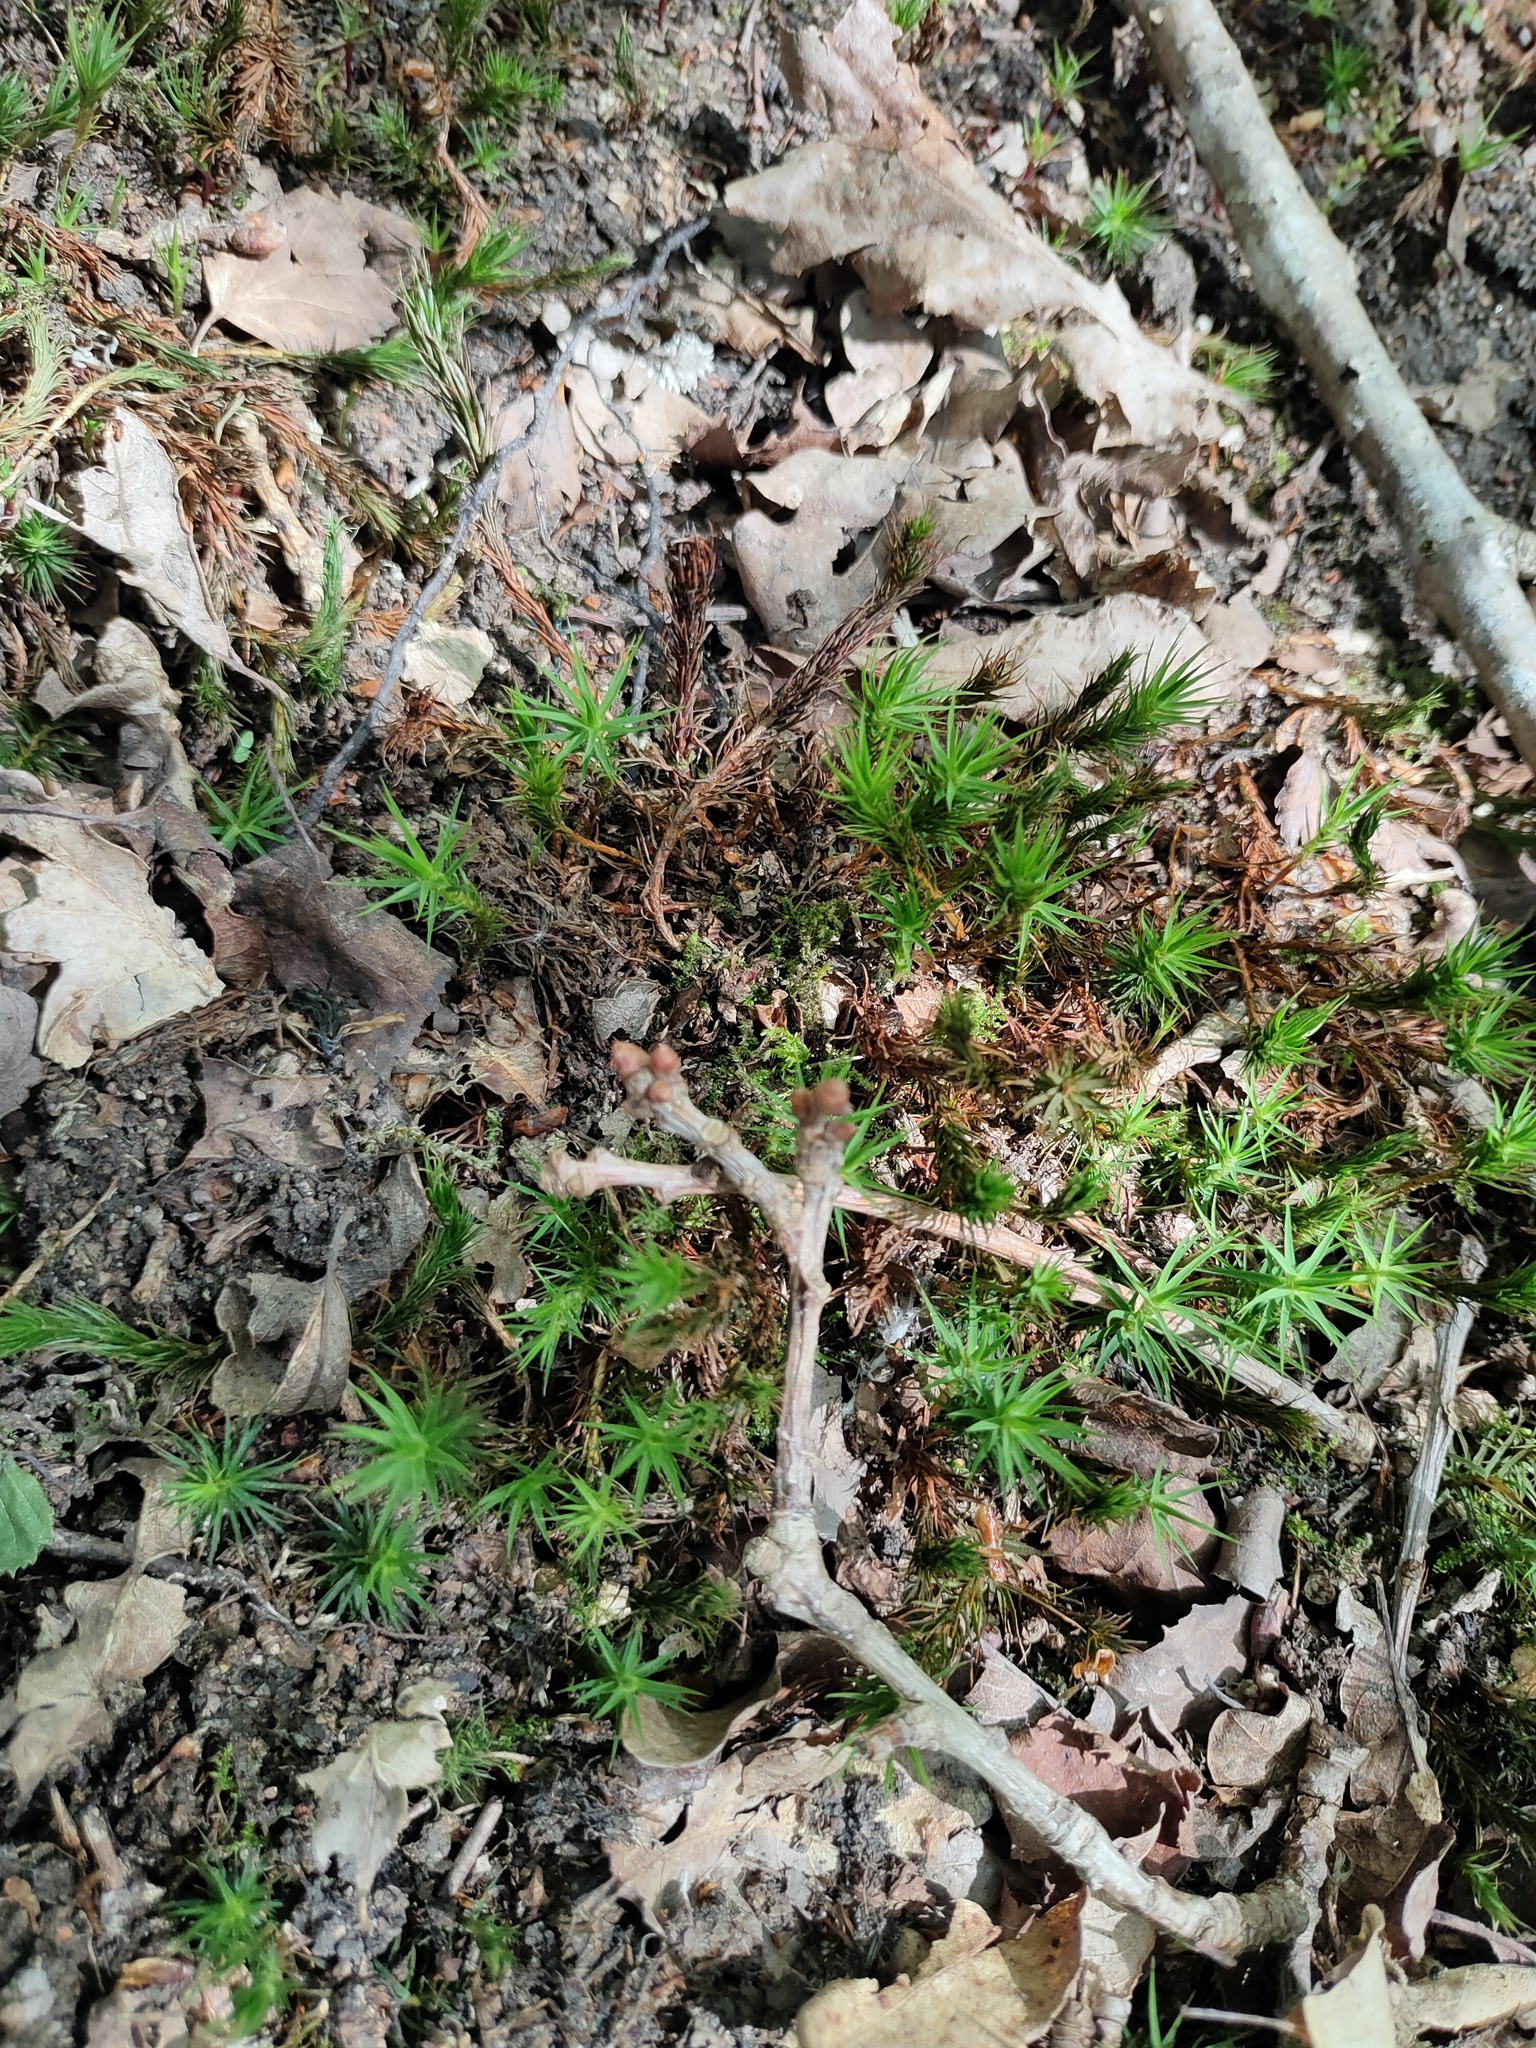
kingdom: Plantae
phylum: Bryophyta
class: Polytrichopsida
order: Polytrichales
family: Polytrichaceae
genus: Polytrichum
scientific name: Polytrichum formosum
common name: Bank haircap moss
